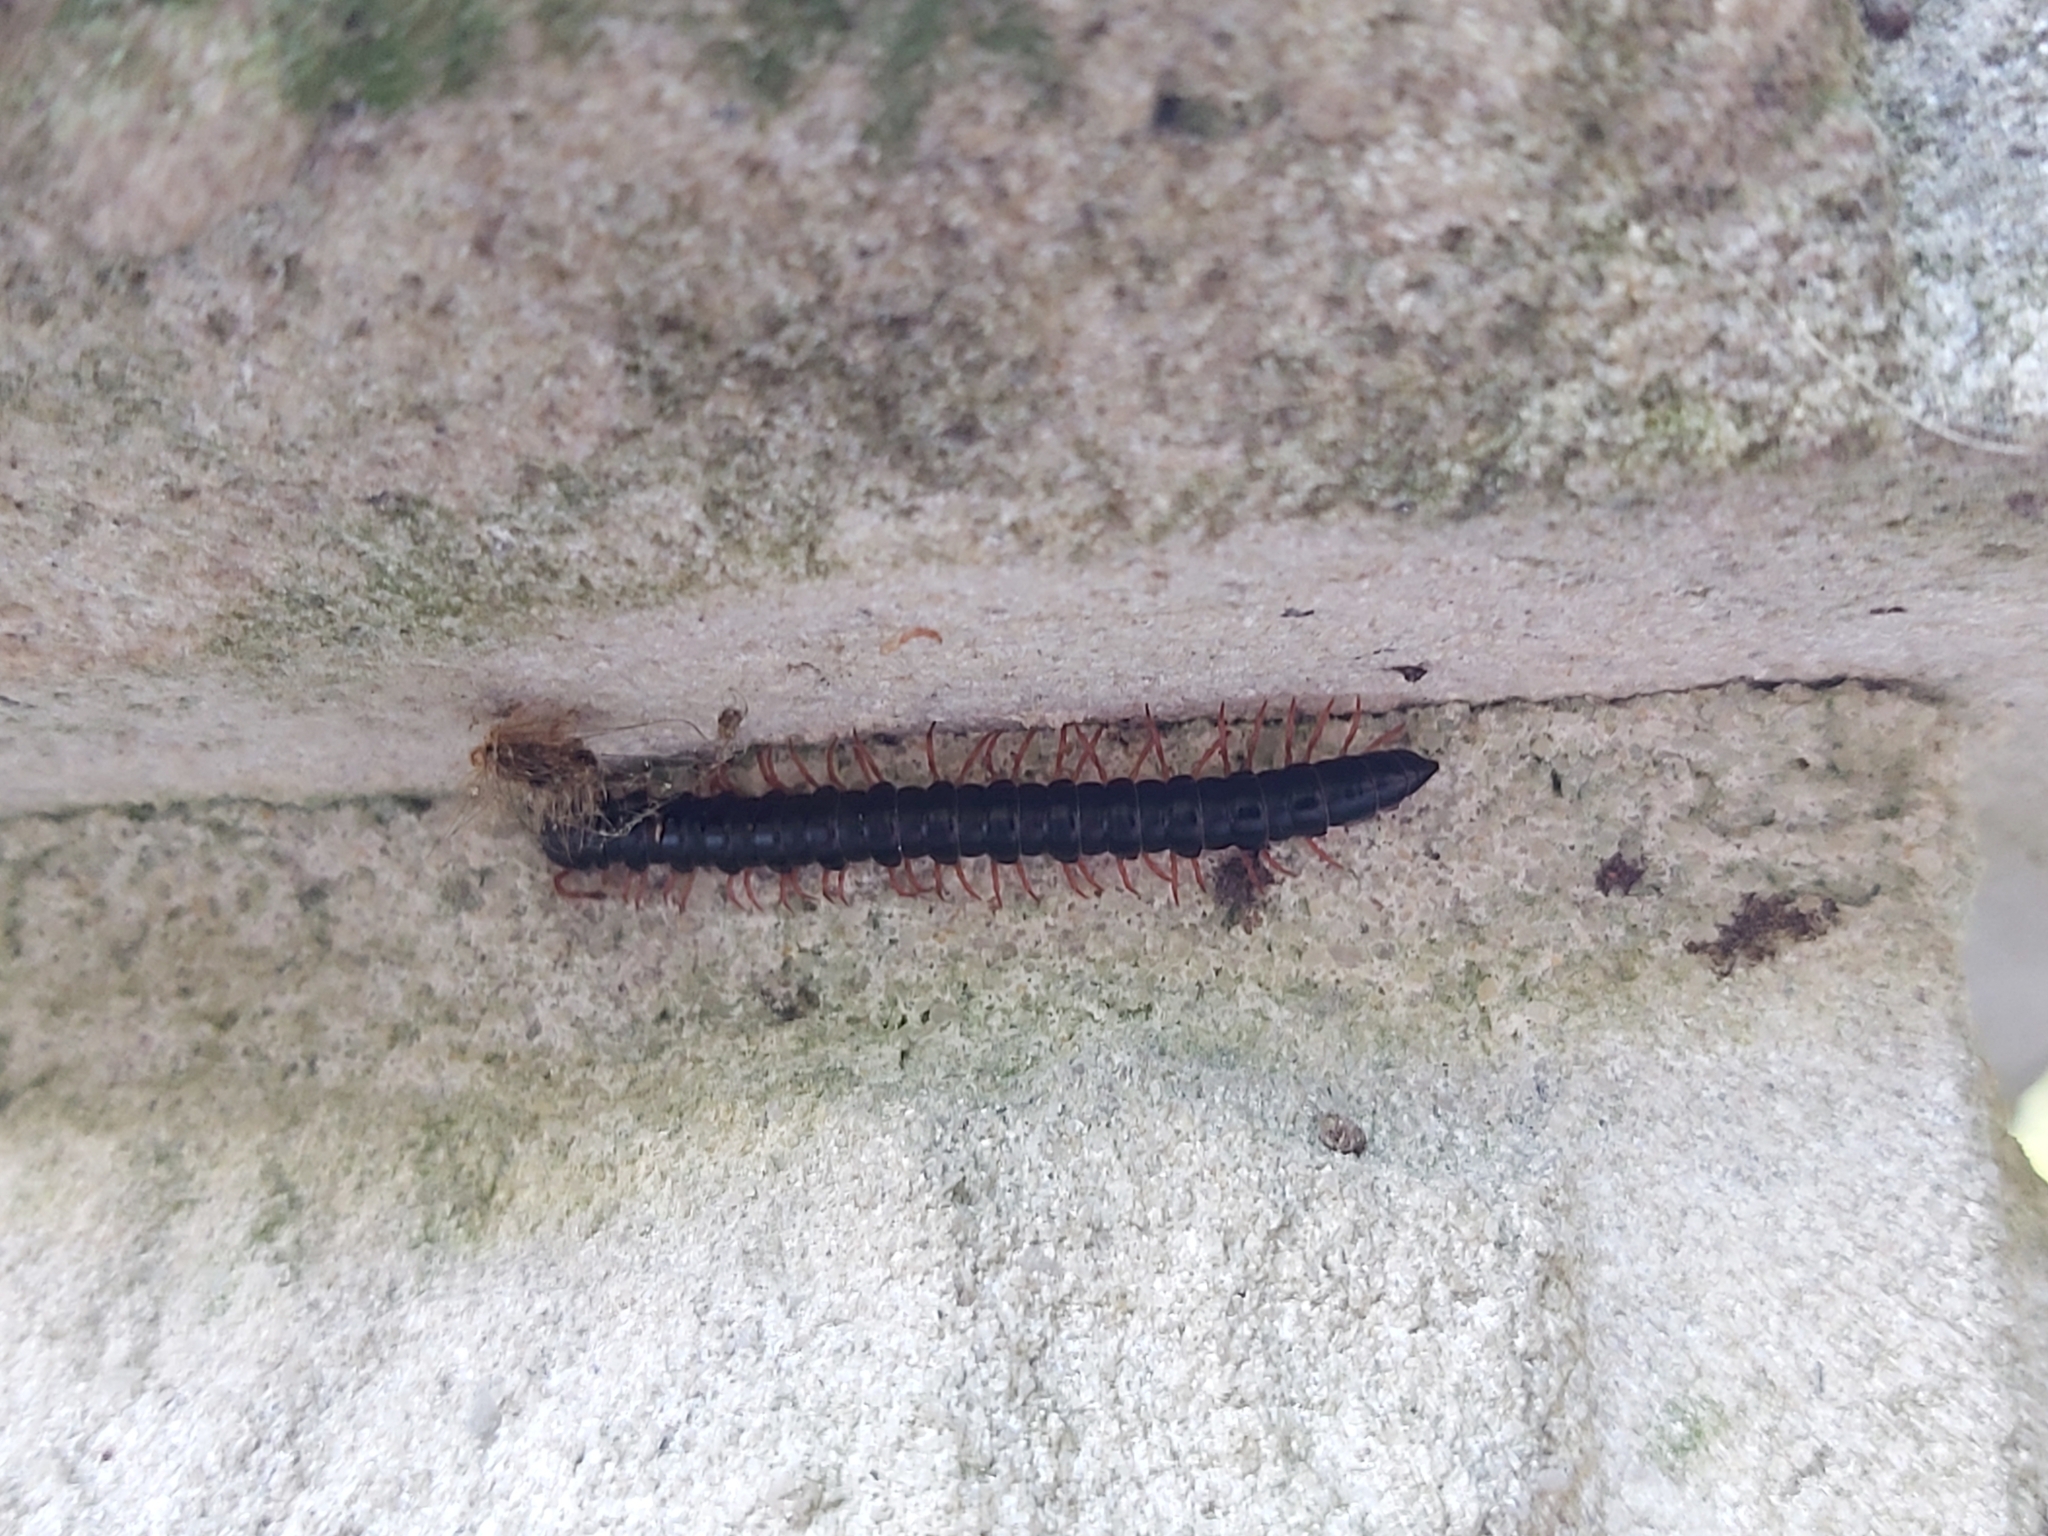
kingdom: Animalia
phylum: Arthropoda
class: Diplopoda
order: Polydesmida
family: Paradoxosomatidae
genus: Heterocladosoma
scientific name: Heterocladosoma
